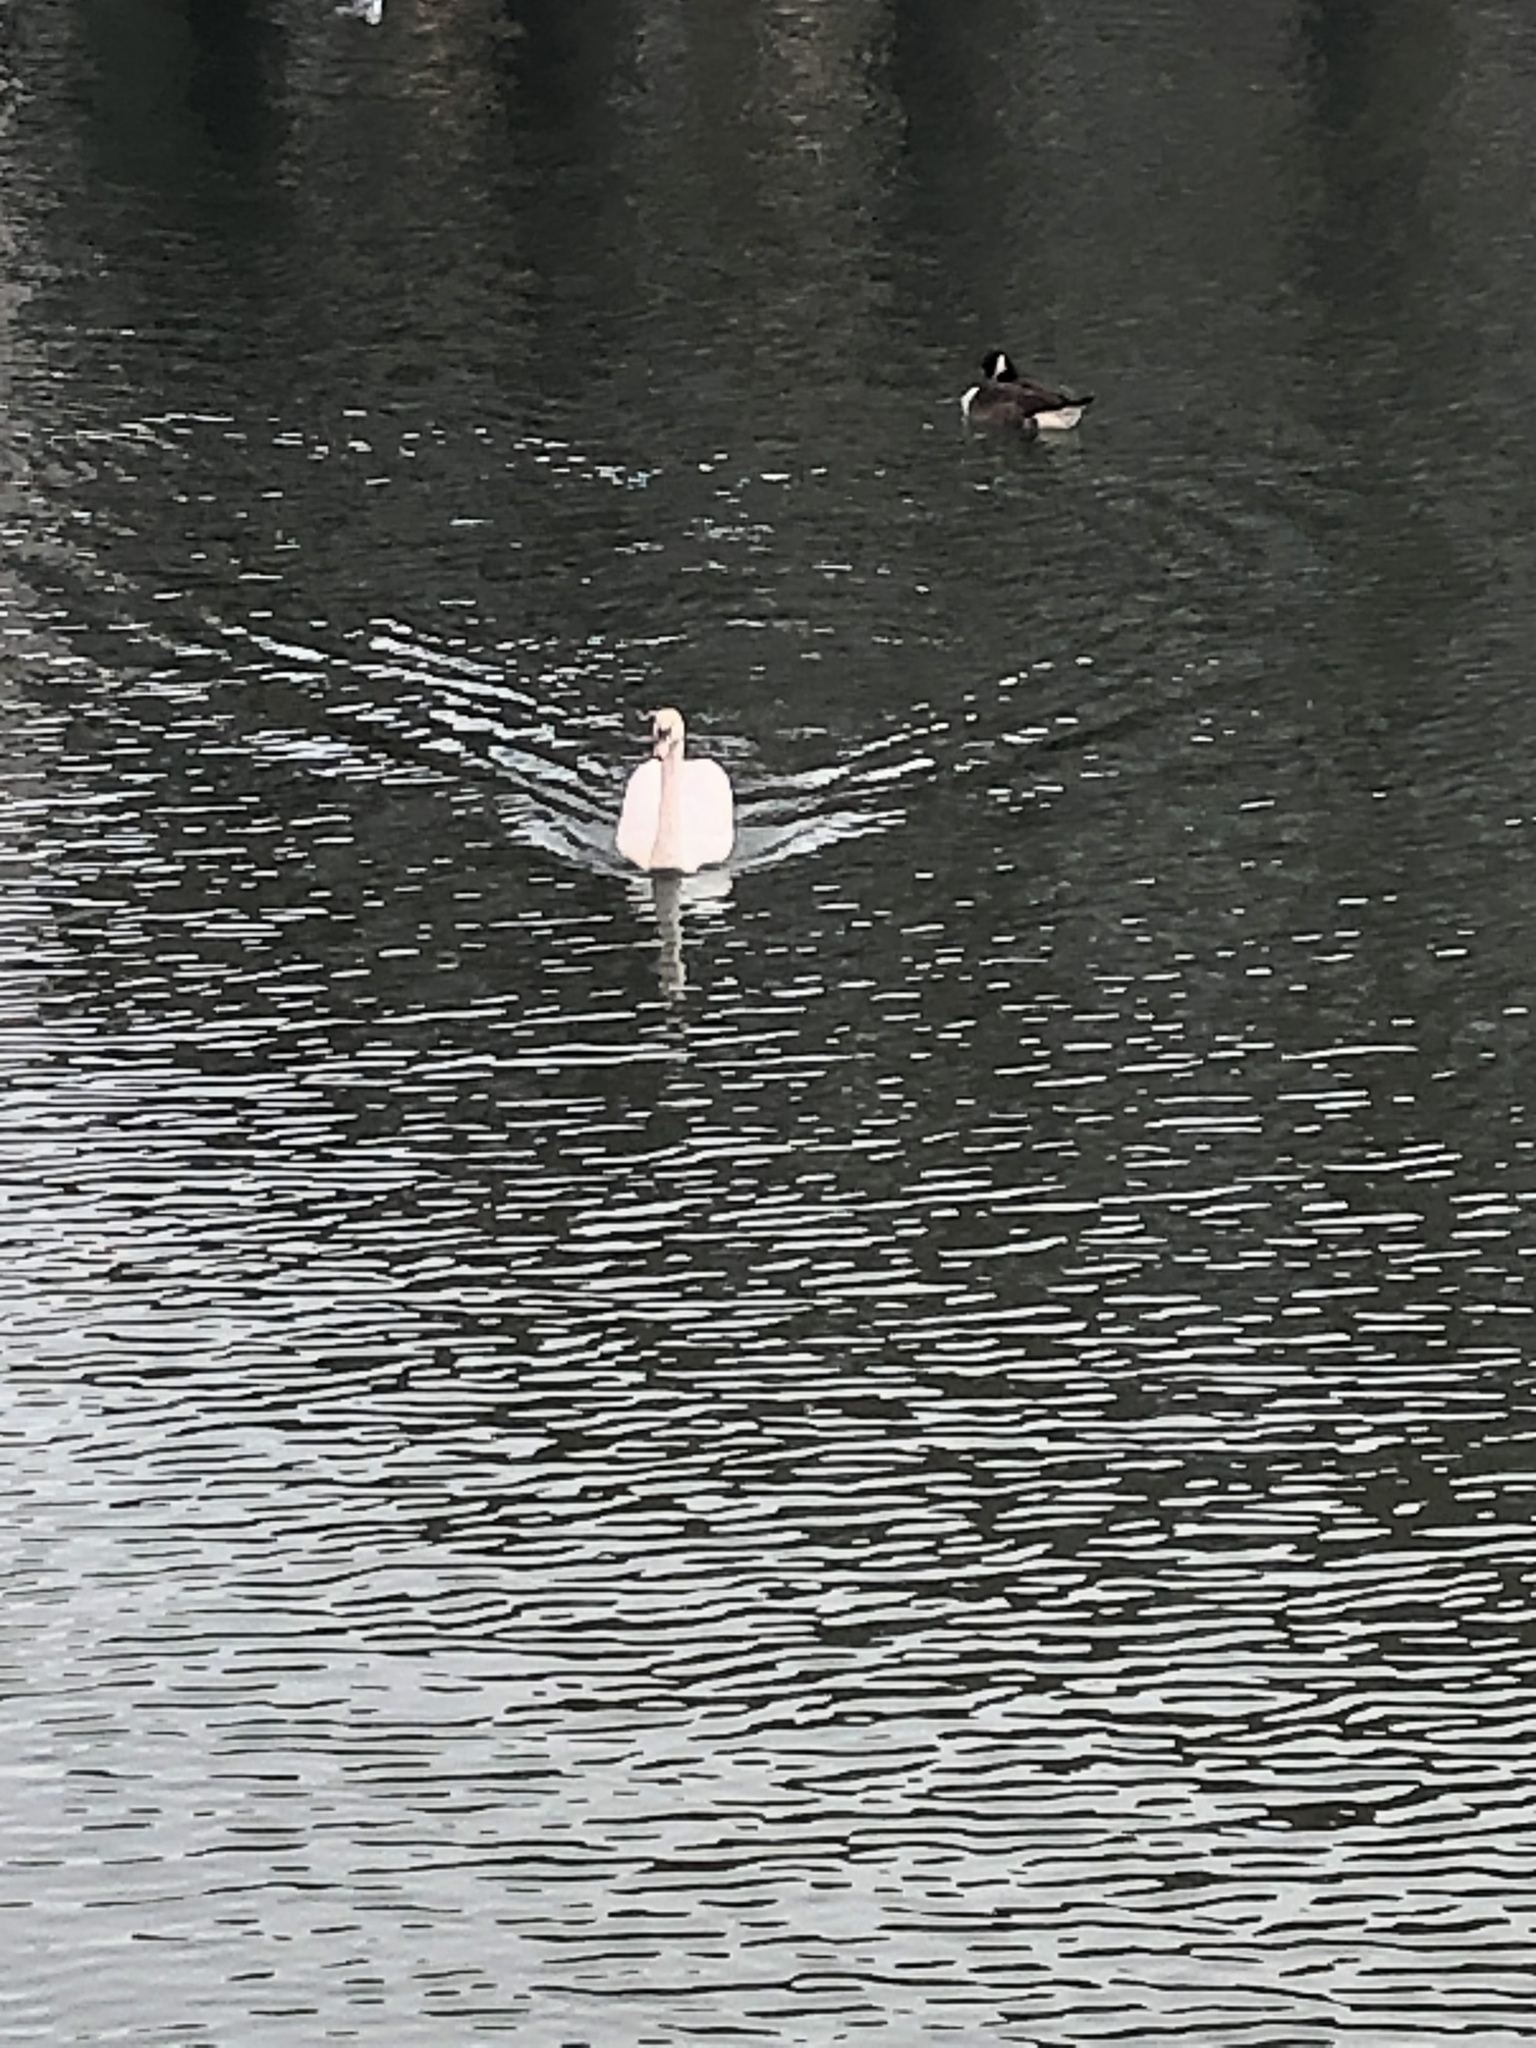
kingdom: Animalia
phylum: Chordata
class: Aves
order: Anseriformes
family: Anatidae
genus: Cygnus
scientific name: Cygnus olor
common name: Mute swan
